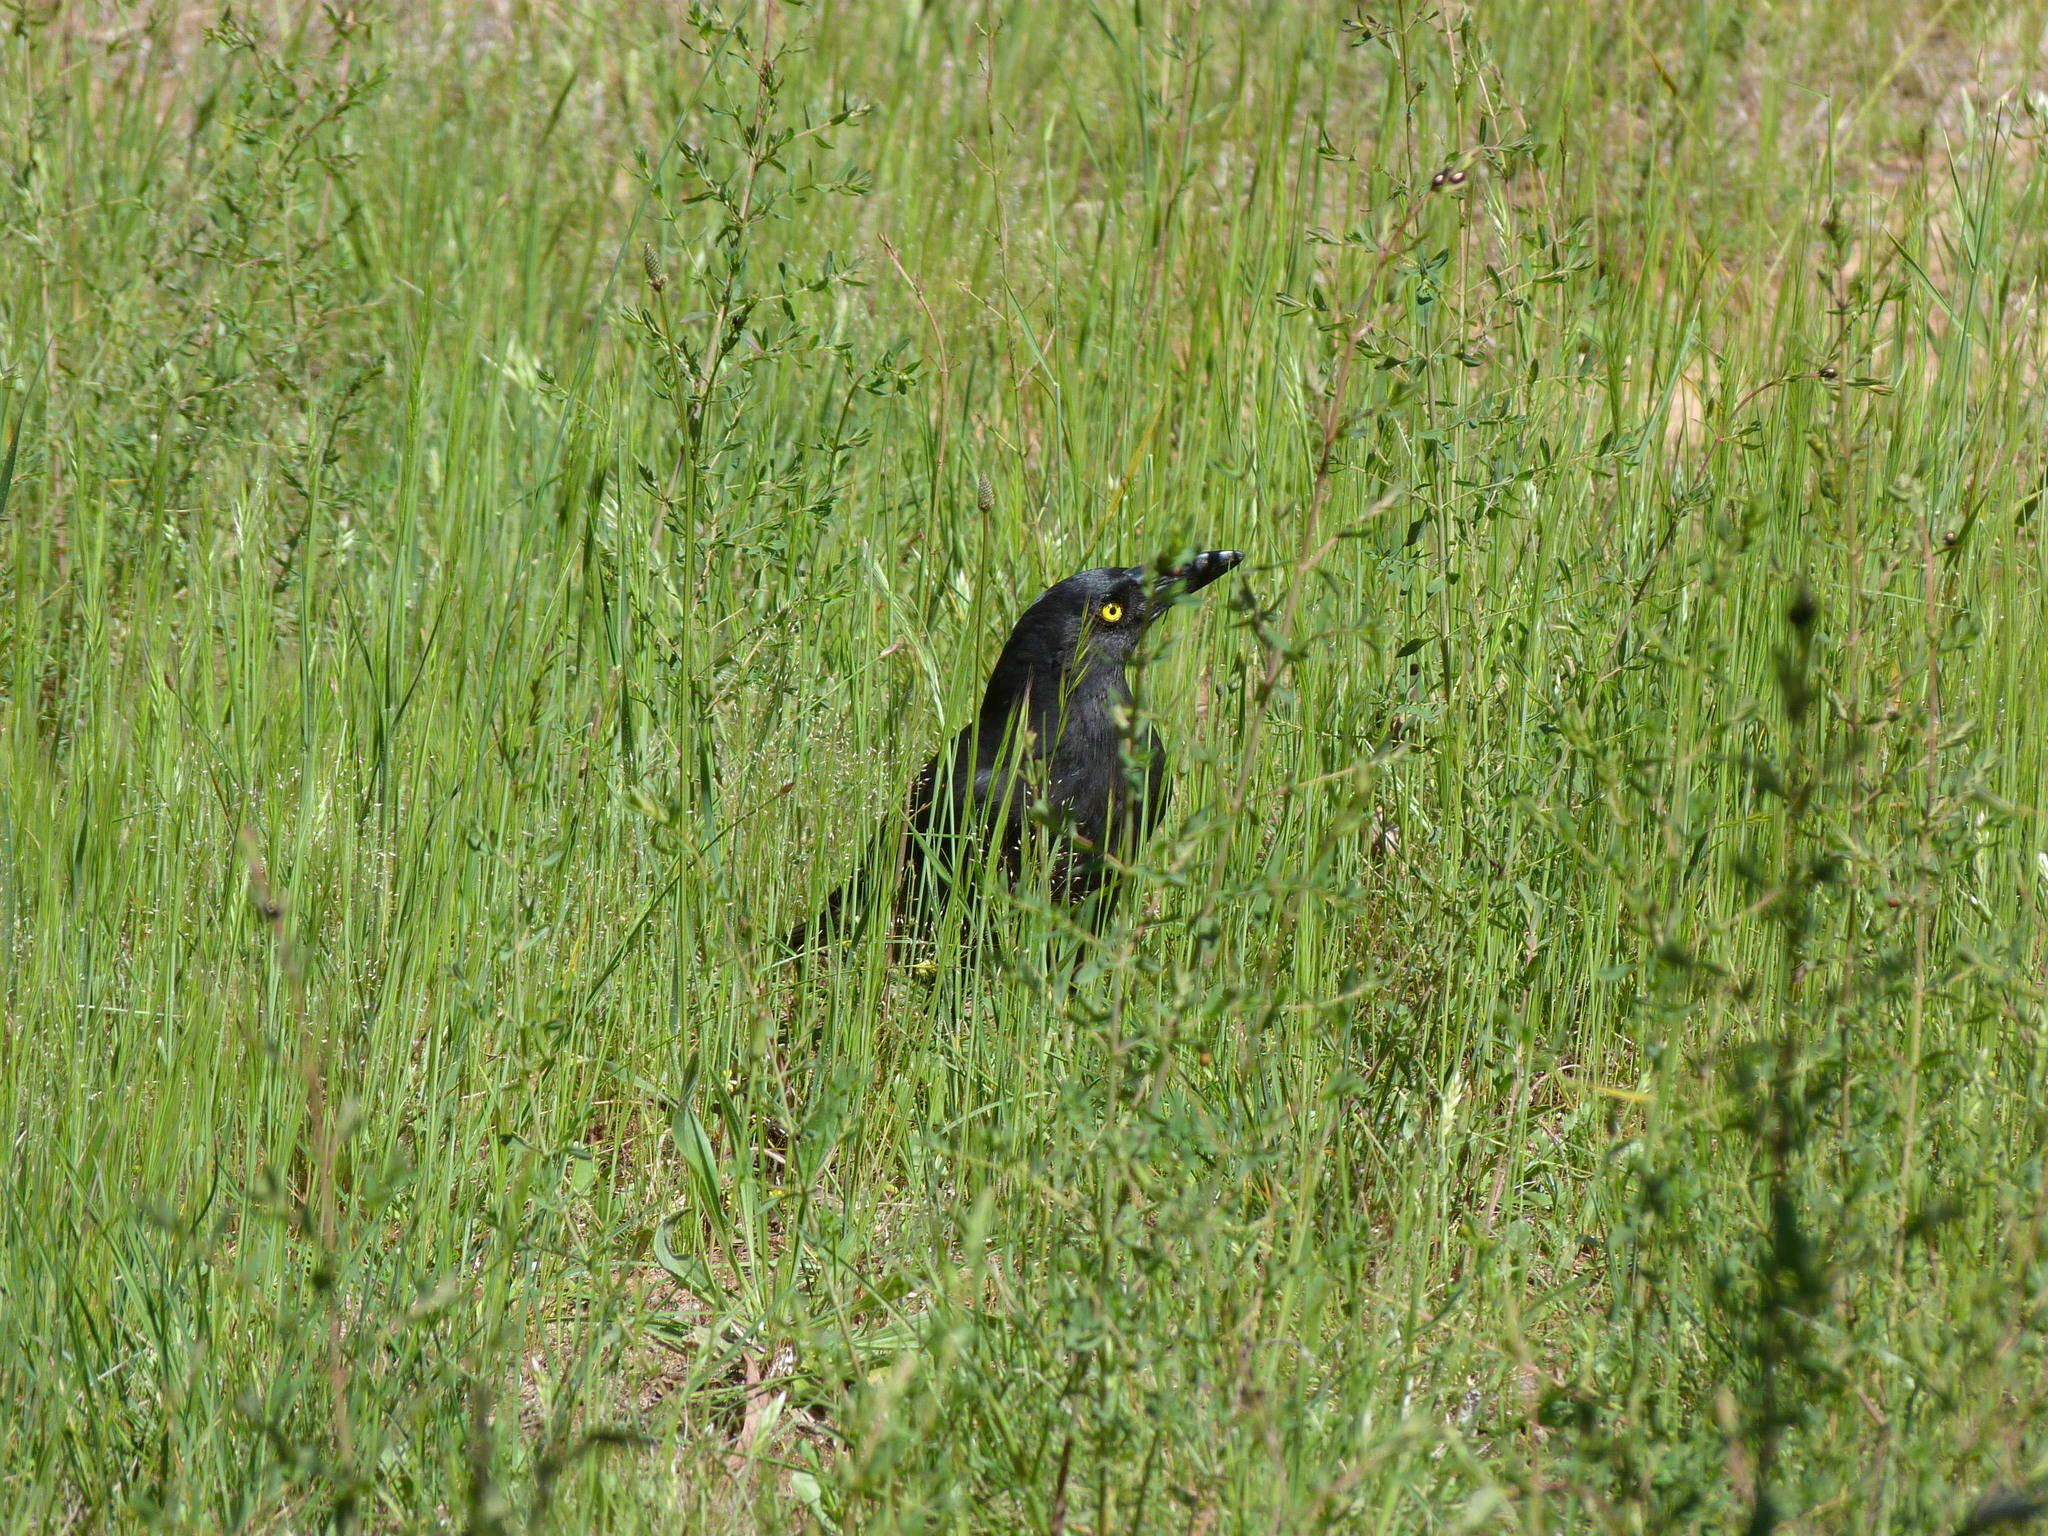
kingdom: Animalia
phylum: Chordata
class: Aves
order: Passeriformes
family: Cracticidae
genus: Strepera
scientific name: Strepera graculina
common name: Pied currawong
